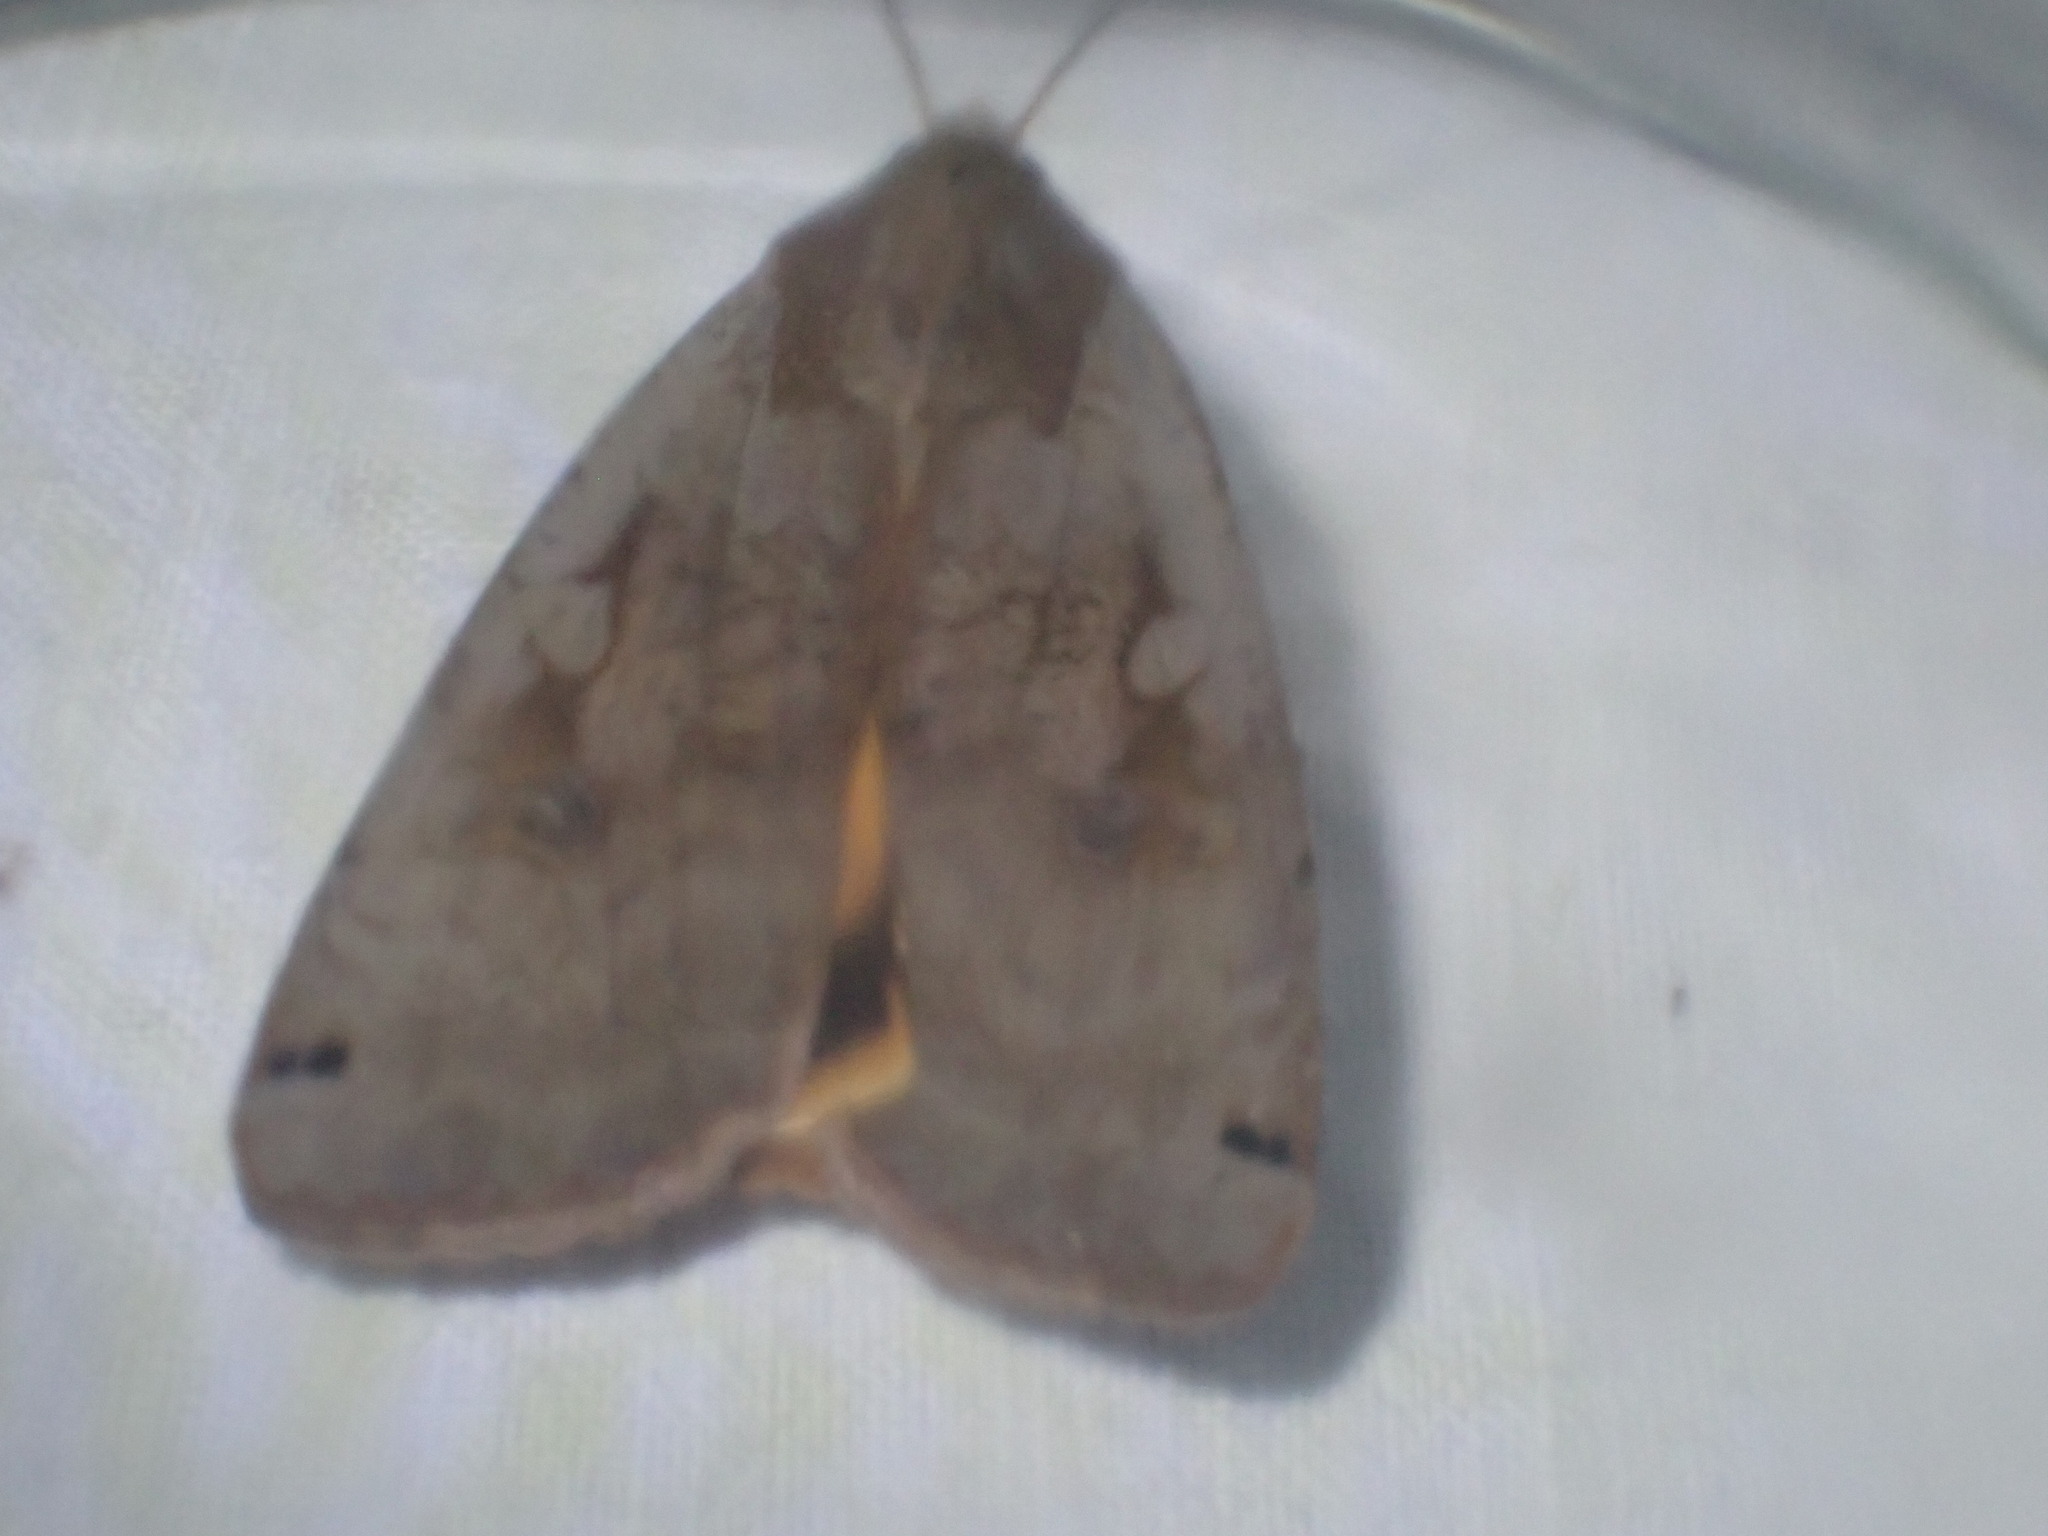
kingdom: Animalia
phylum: Arthropoda
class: Insecta
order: Lepidoptera
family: Noctuidae
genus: Noctua
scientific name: Noctua pronuba
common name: Large yellow underwing
